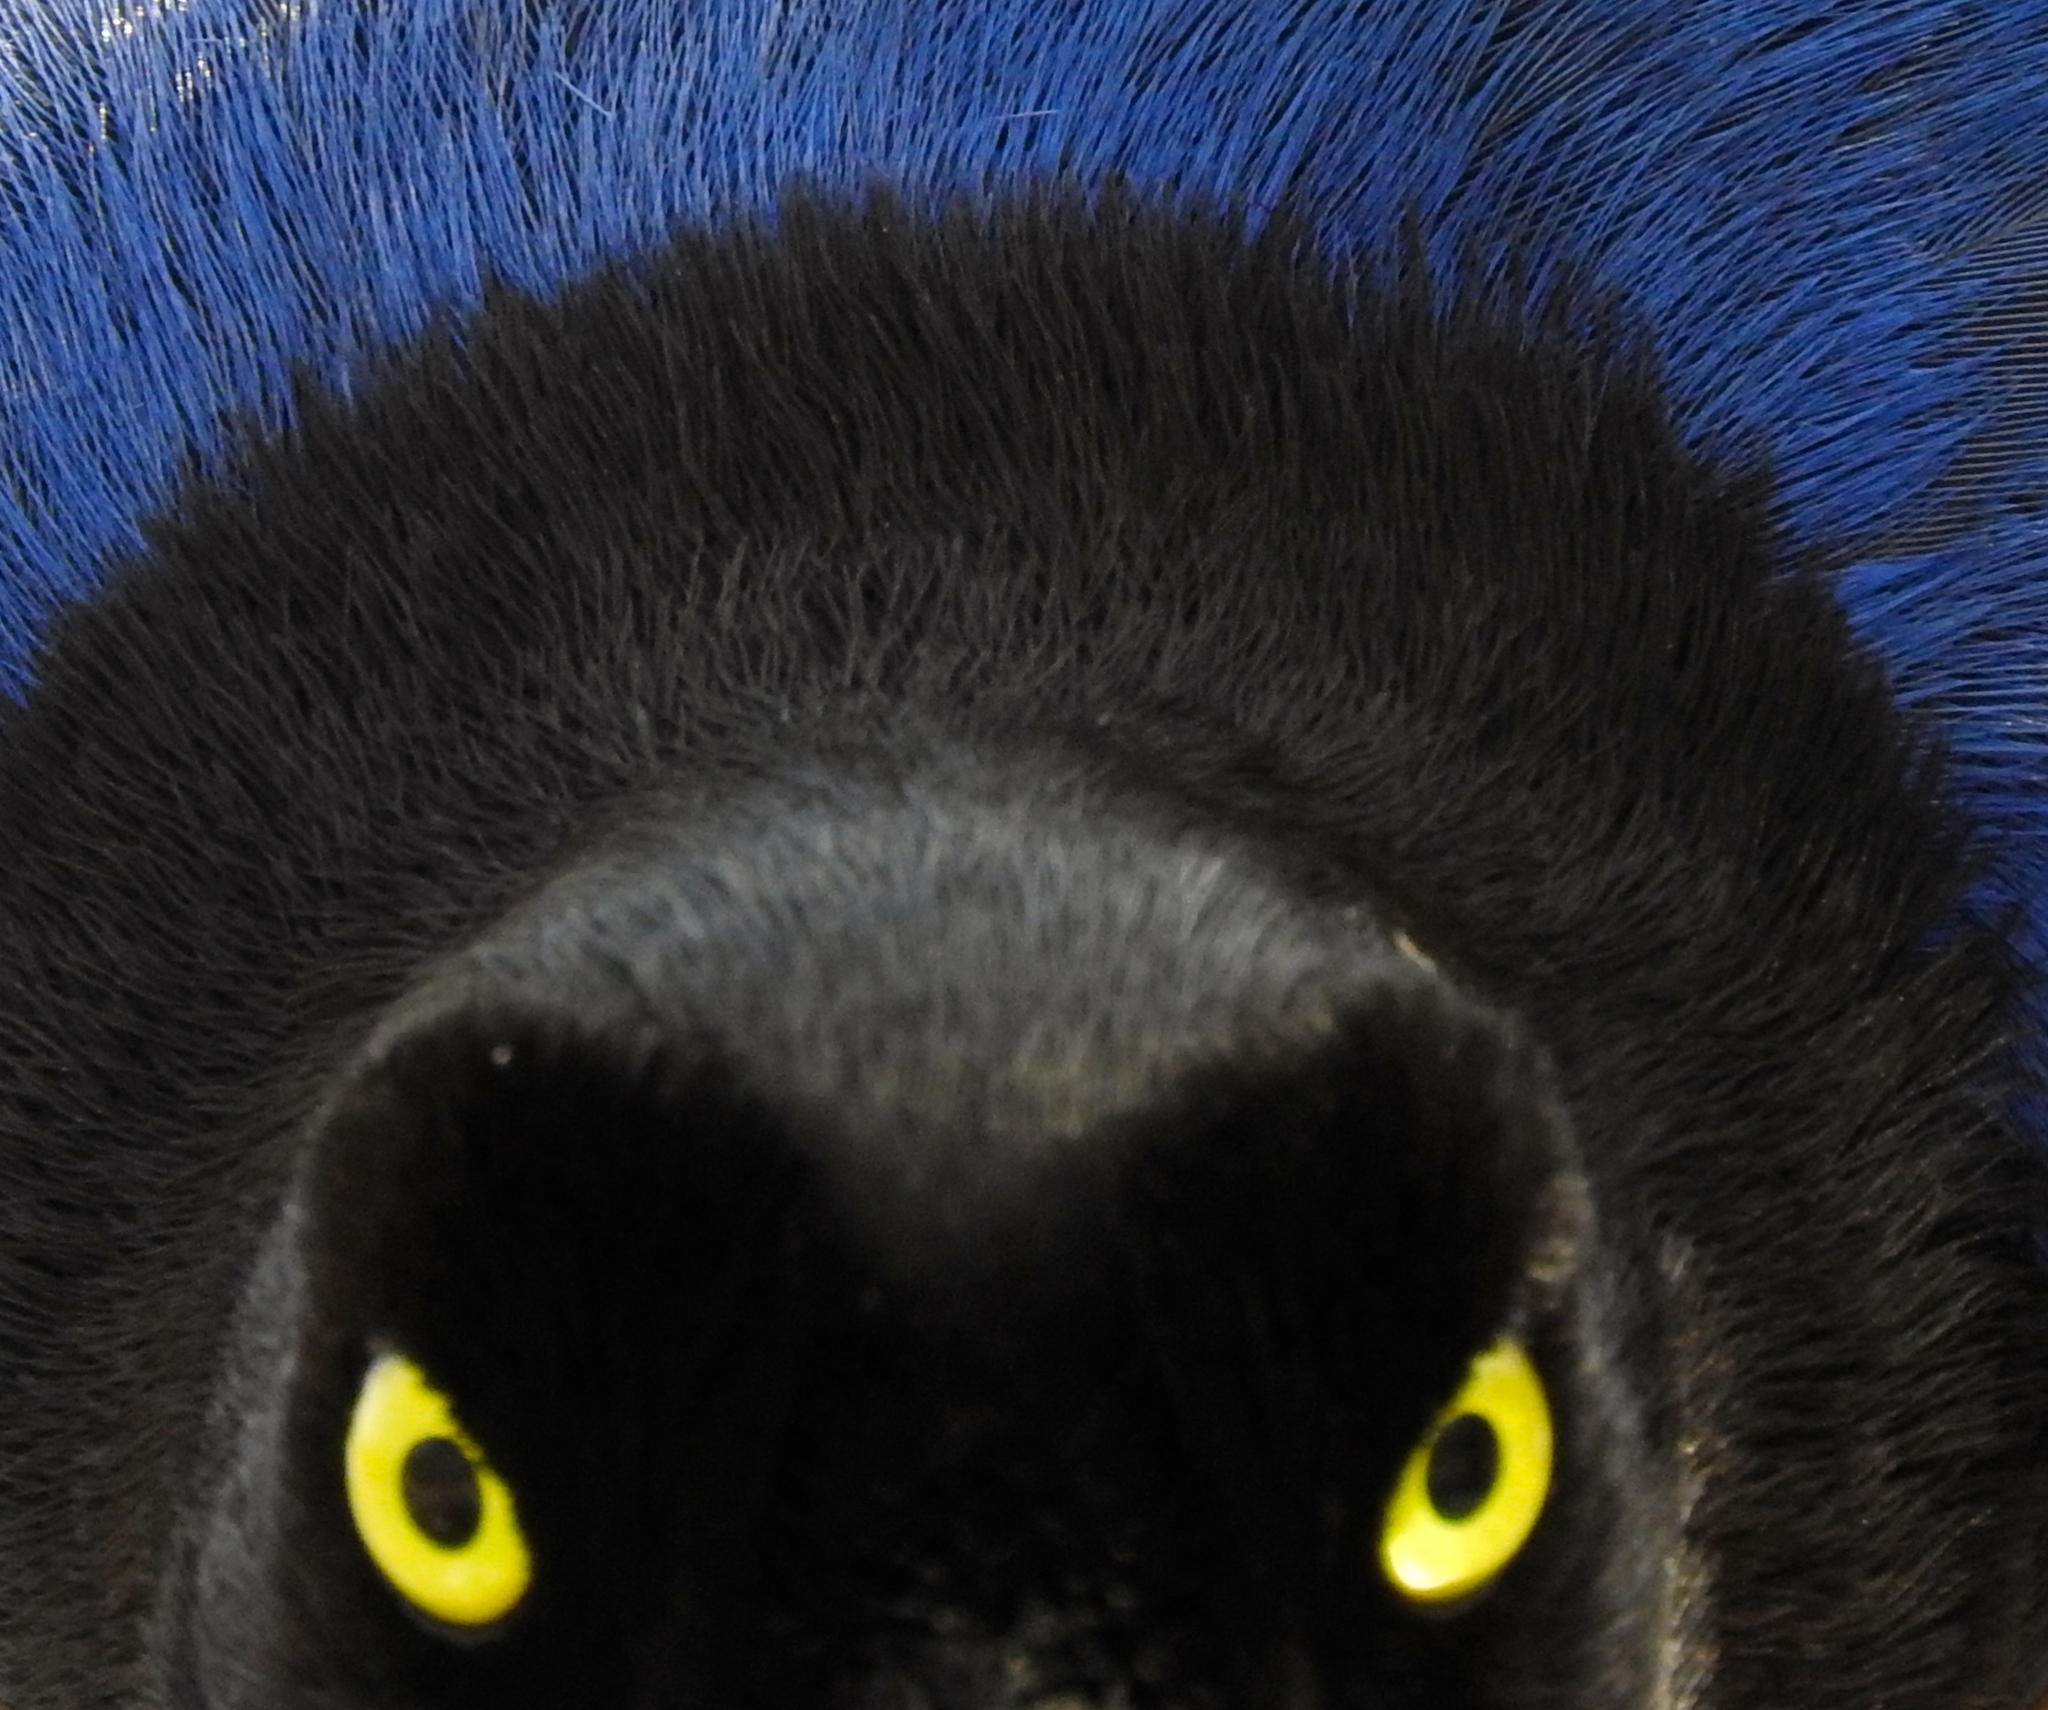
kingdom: Animalia
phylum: Chordata
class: Aves
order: Passeriformes
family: Corvidae
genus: Cyanocorax
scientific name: Cyanocorax beecheii
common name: Purplish-backed jay
